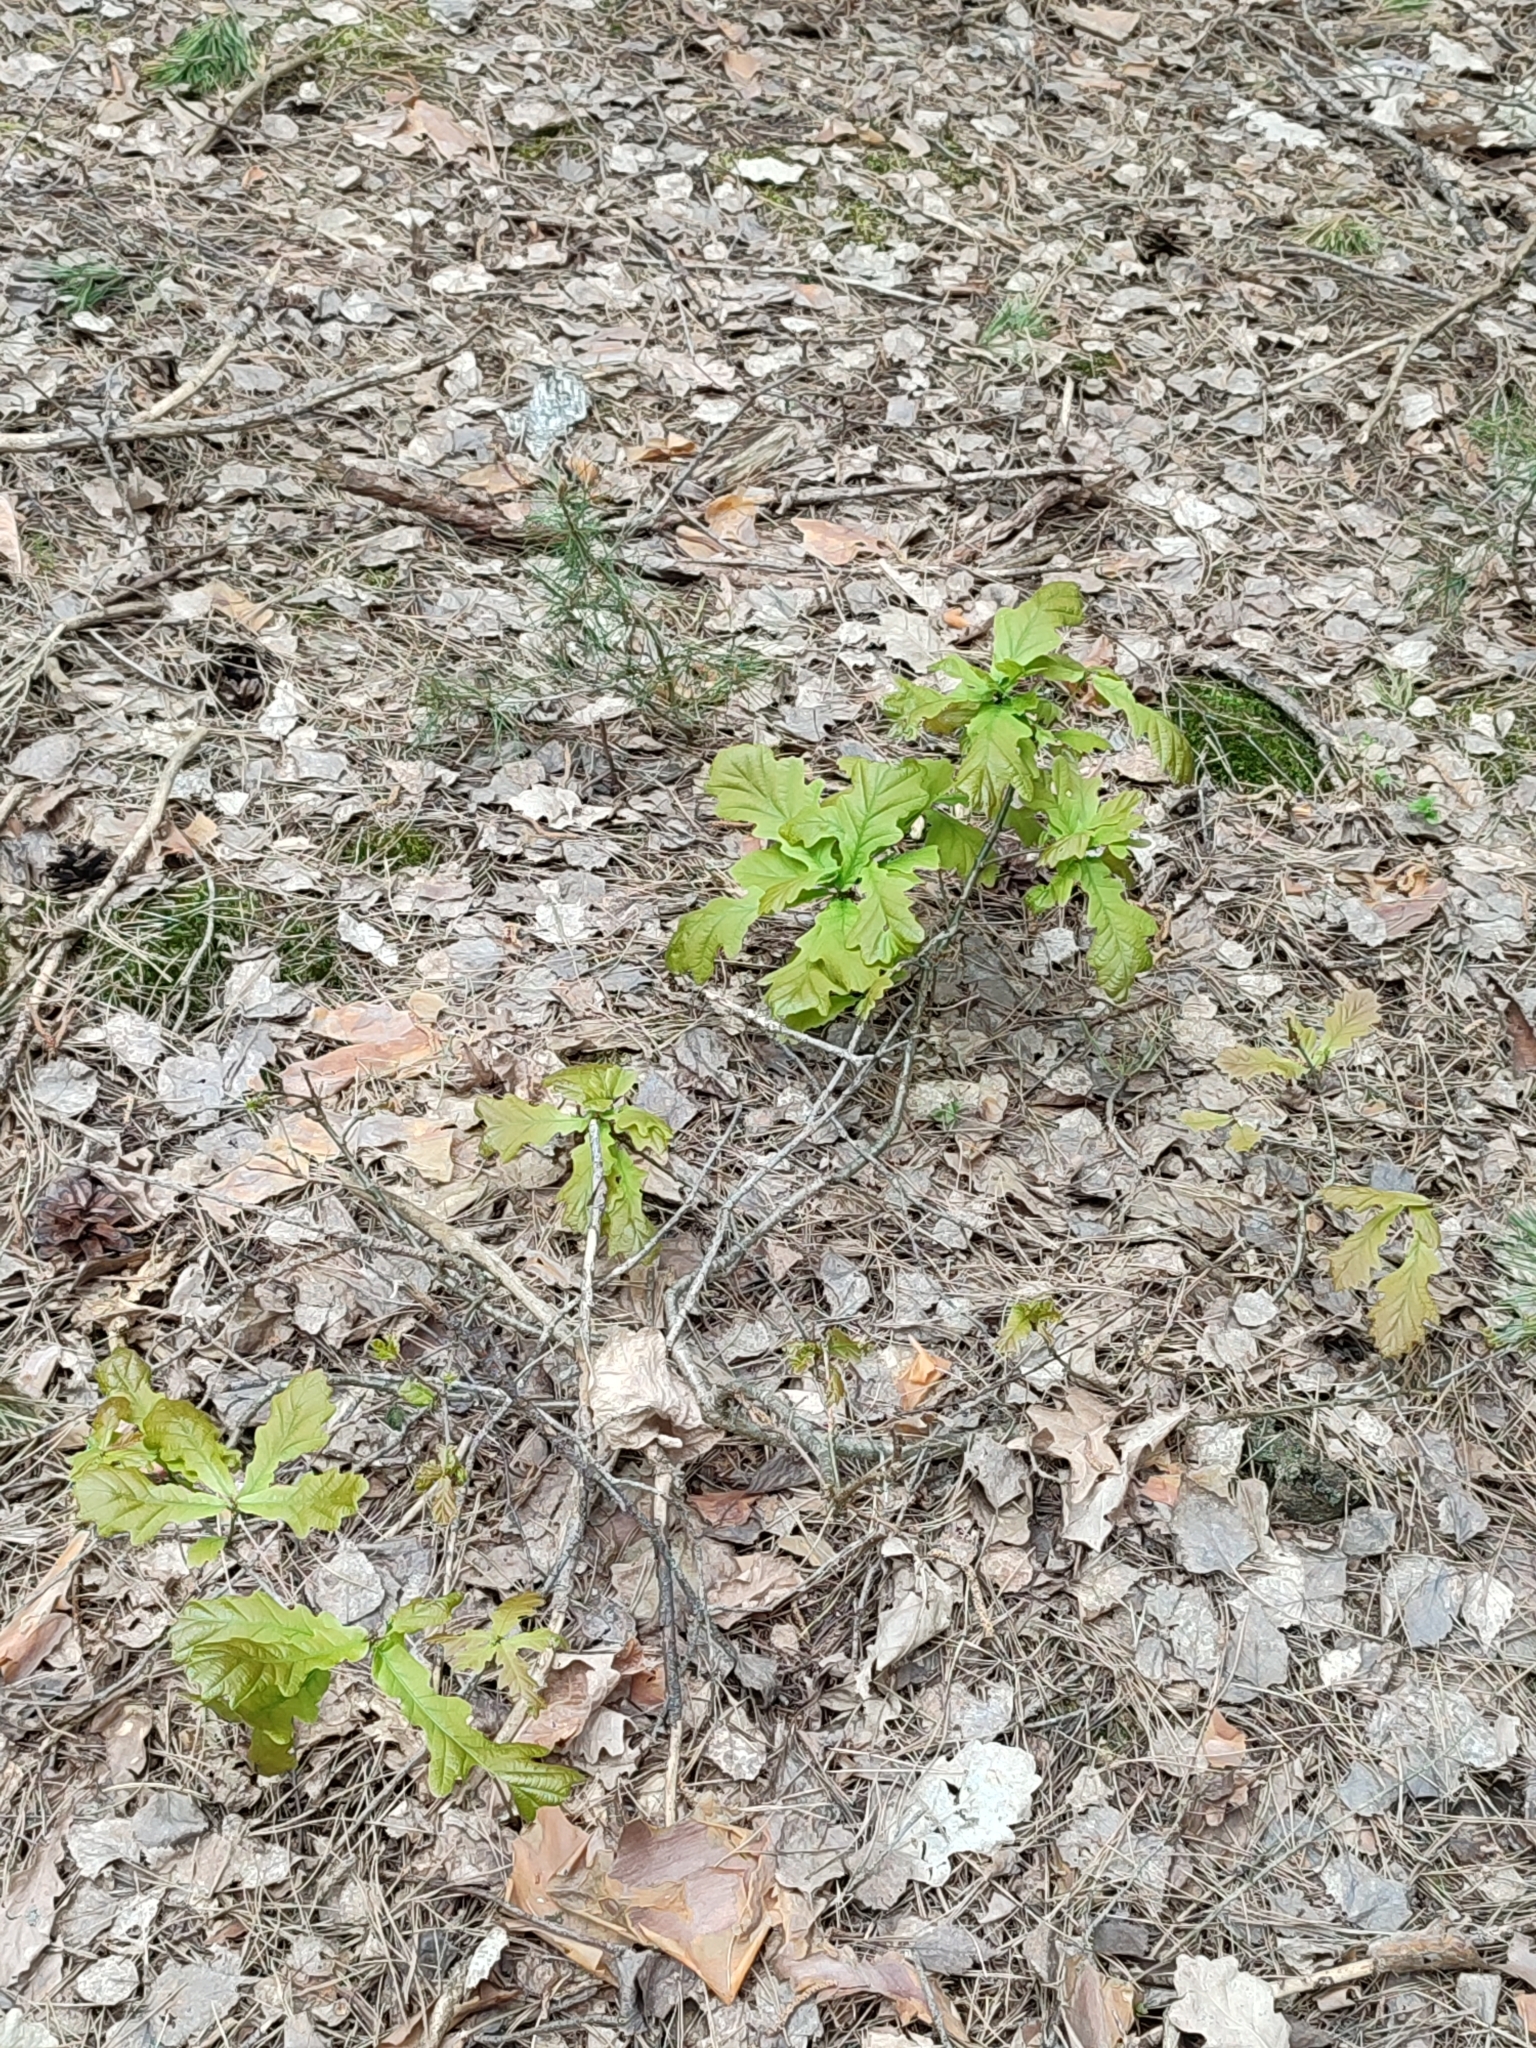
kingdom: Plantae
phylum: Tracheophyta
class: Magnoliopsida
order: Fagales
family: Fagaceae
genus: Quercus
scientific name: Quercus robur
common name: Pedunculate oak
